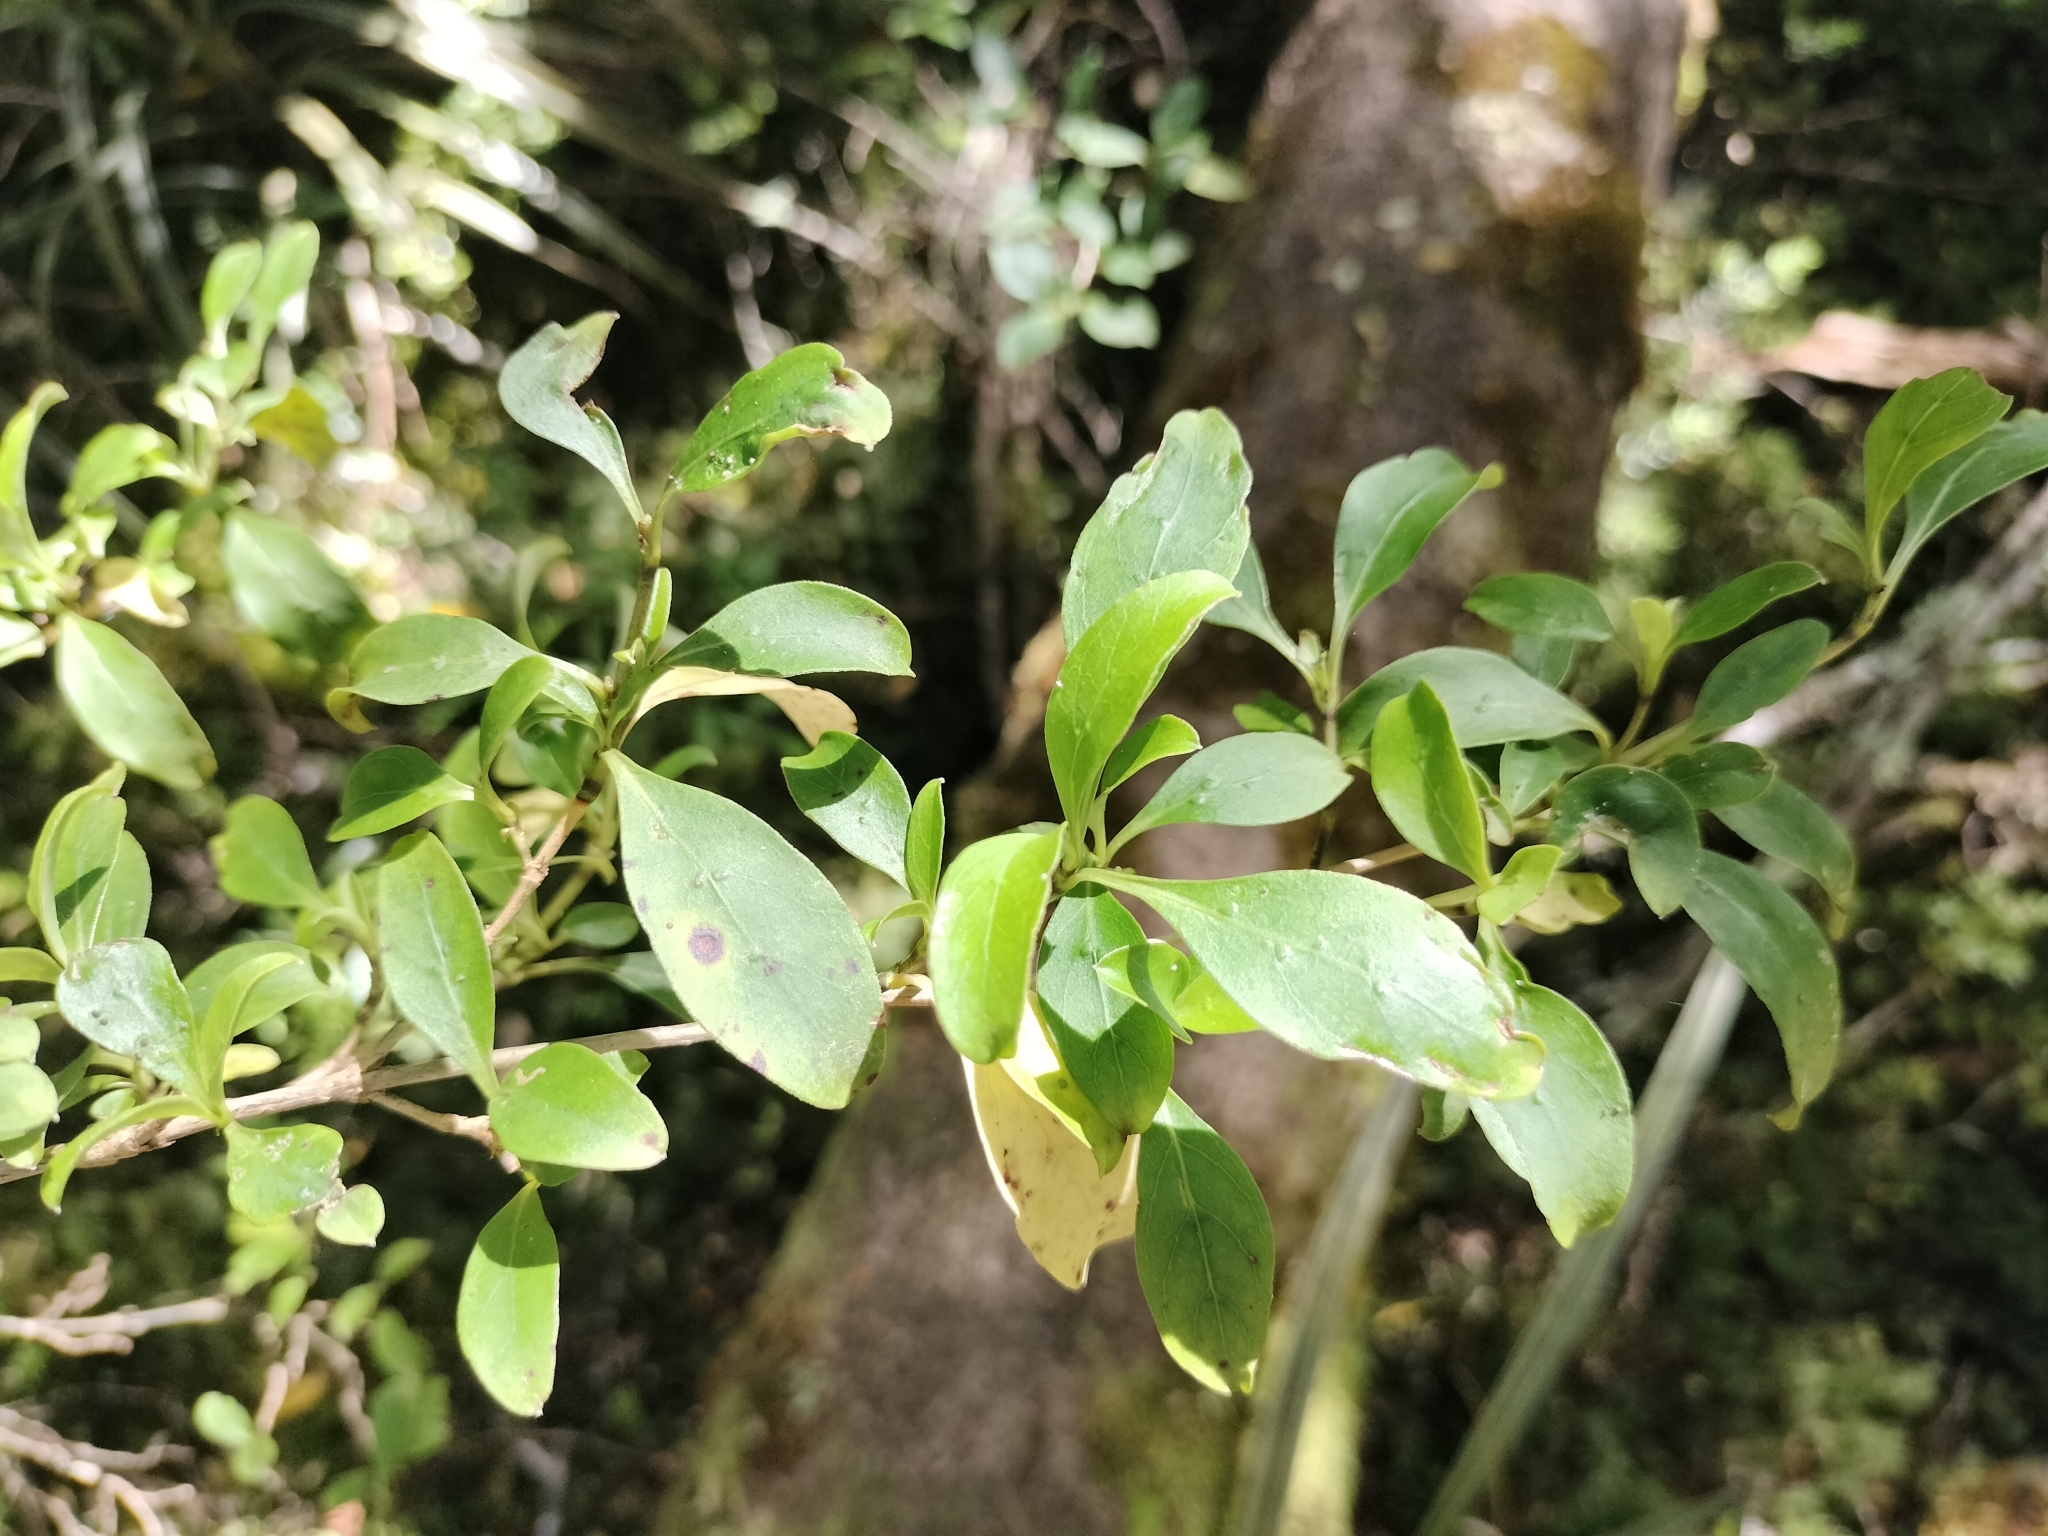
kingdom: Plantae
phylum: Tracheophyta
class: Magnoliopsida
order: Gentianales
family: Rubiaceae
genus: Coprosma
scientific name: Coprosma foetidissima
